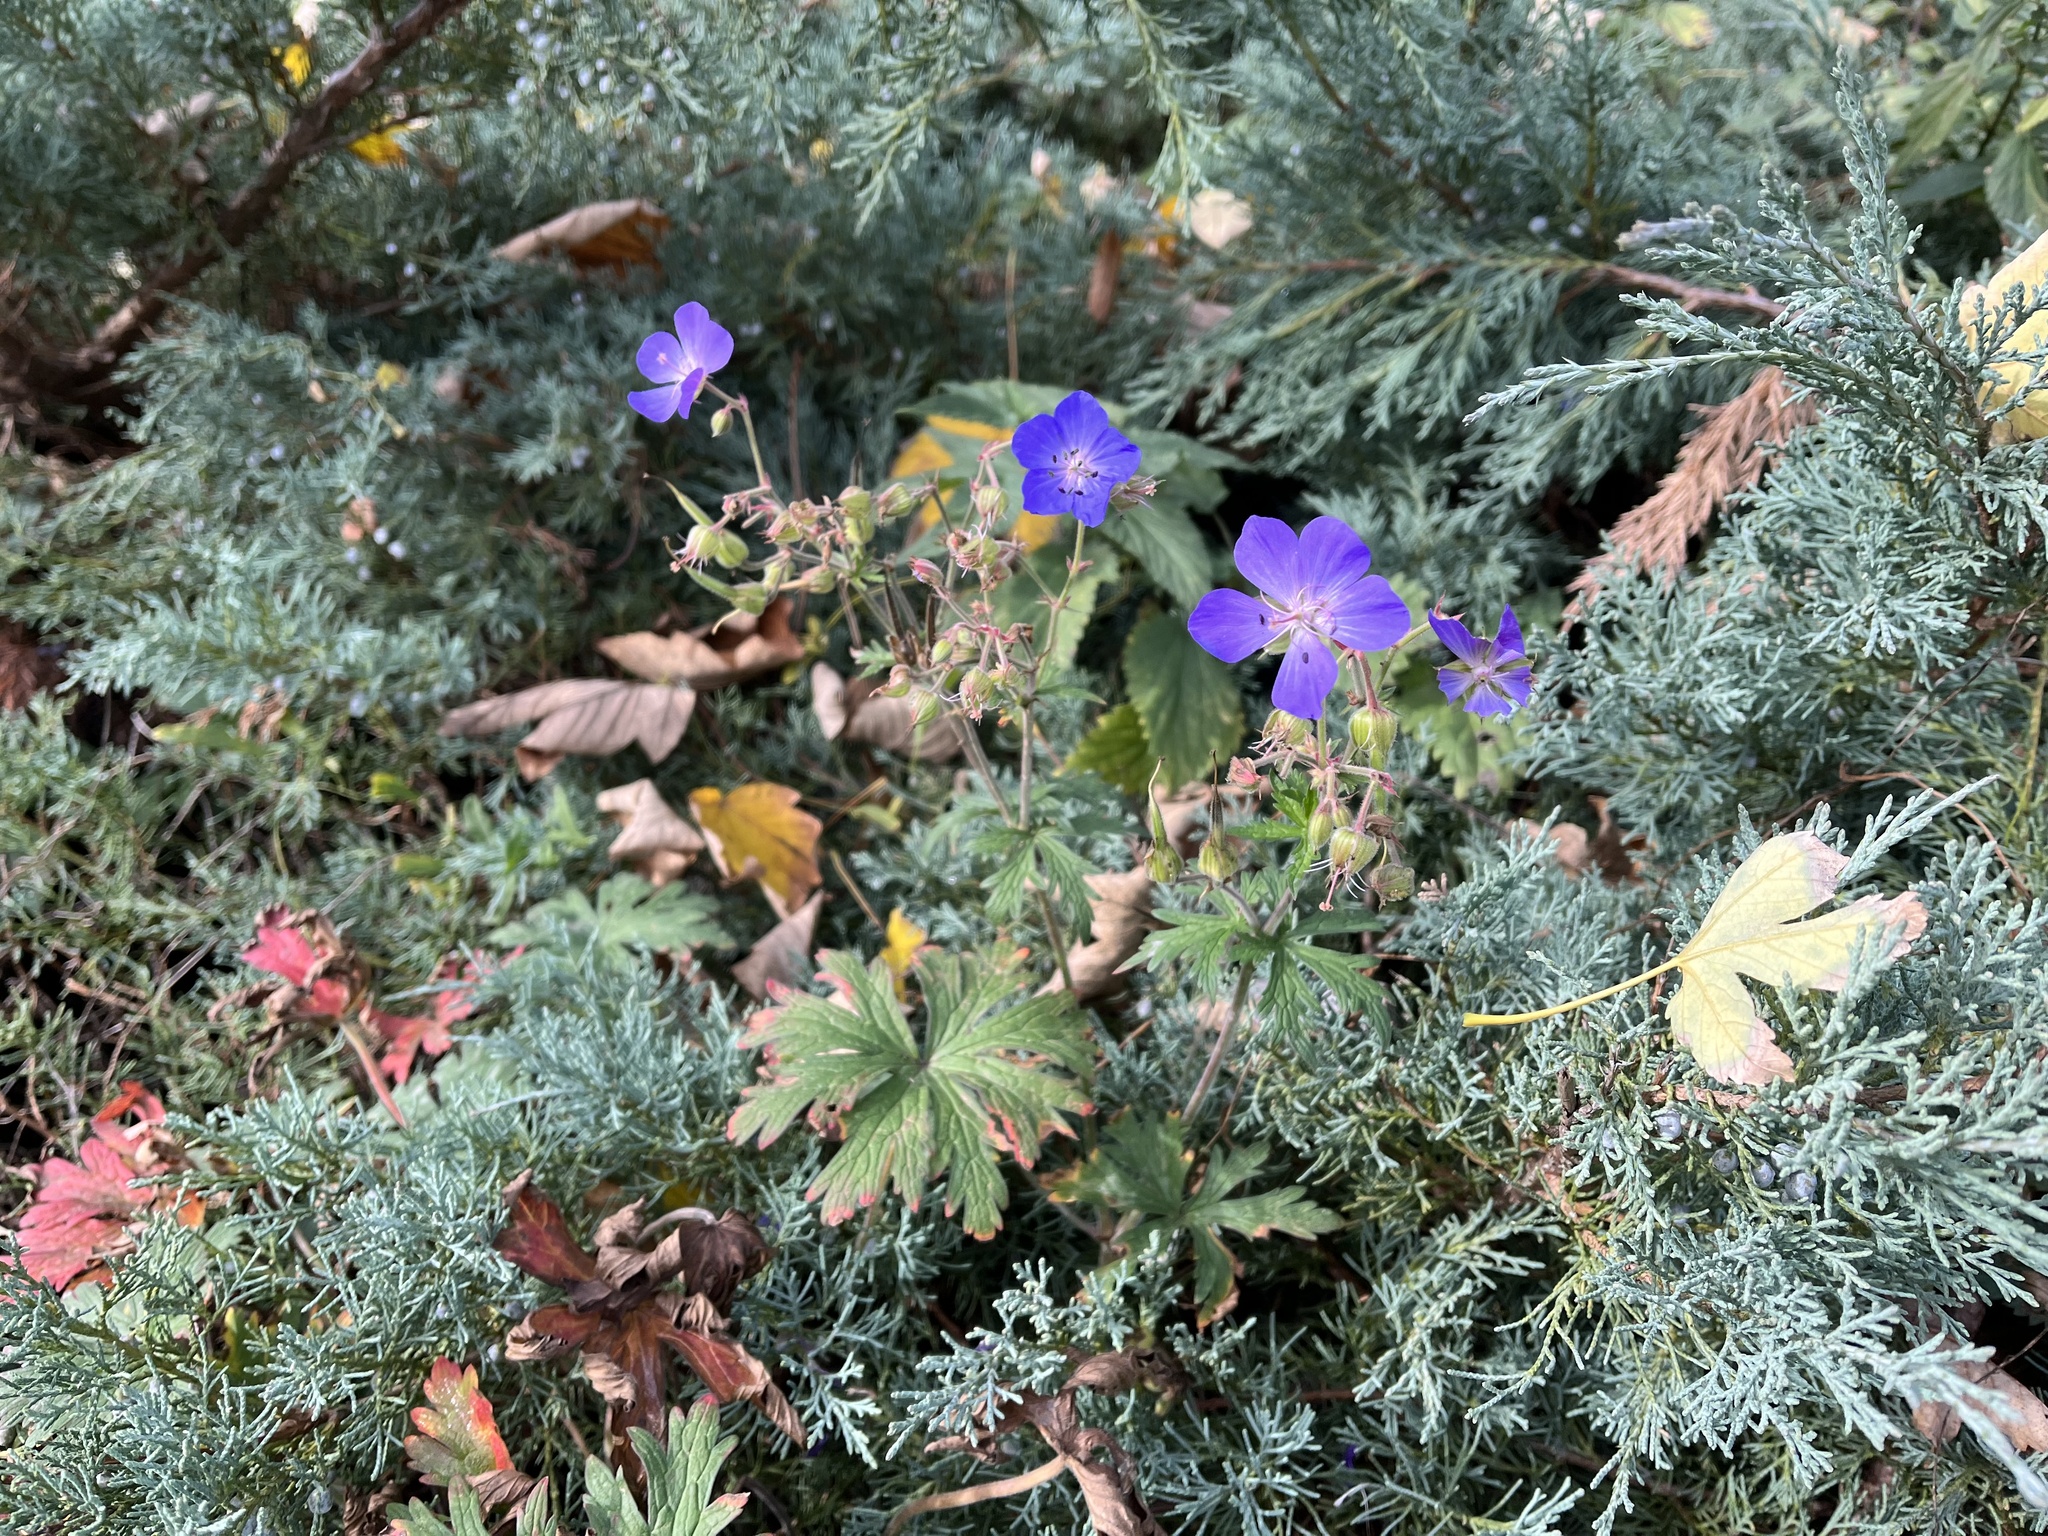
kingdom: Plantae
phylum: Tracheophyta
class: Magnoliopsida
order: Geraniales
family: Geraniaceae
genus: Geranium
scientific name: Geranium pratense
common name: Meadow crane's-bill
